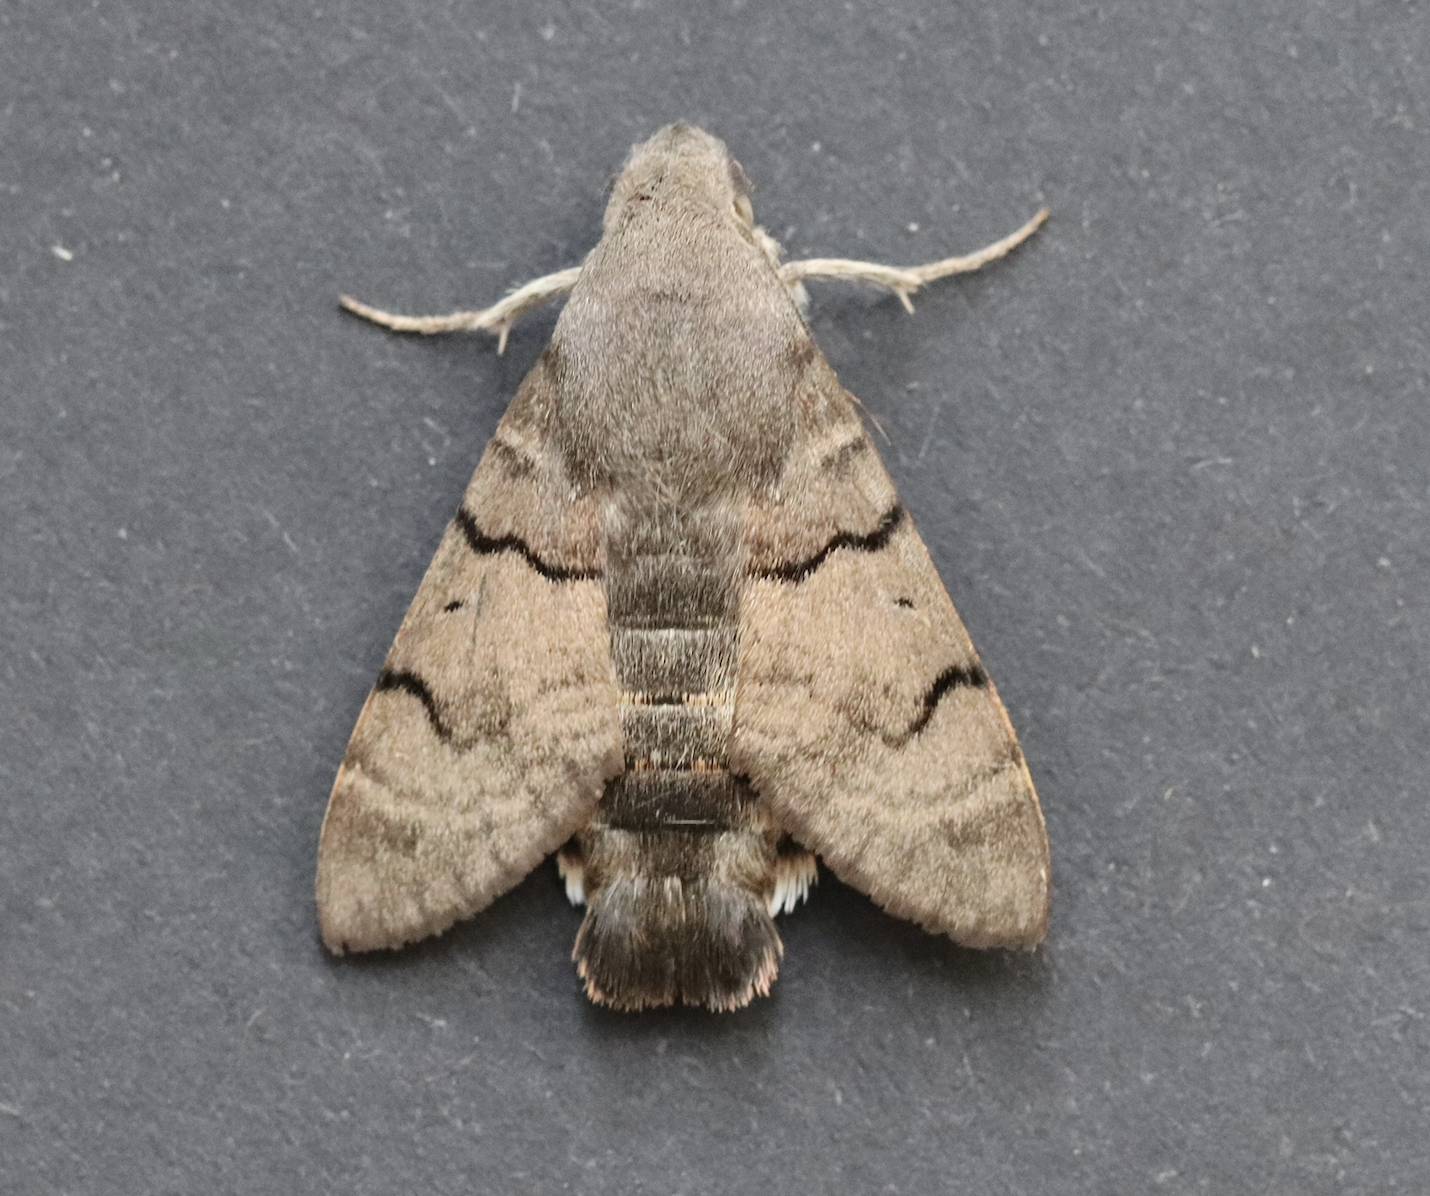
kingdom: Animalia
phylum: Arthropoda
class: Insecta
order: Lepidoptera
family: Sphingidae
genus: Macroglossum
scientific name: Macroglossum stellatarum
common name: Humming-bird hawk-moth
